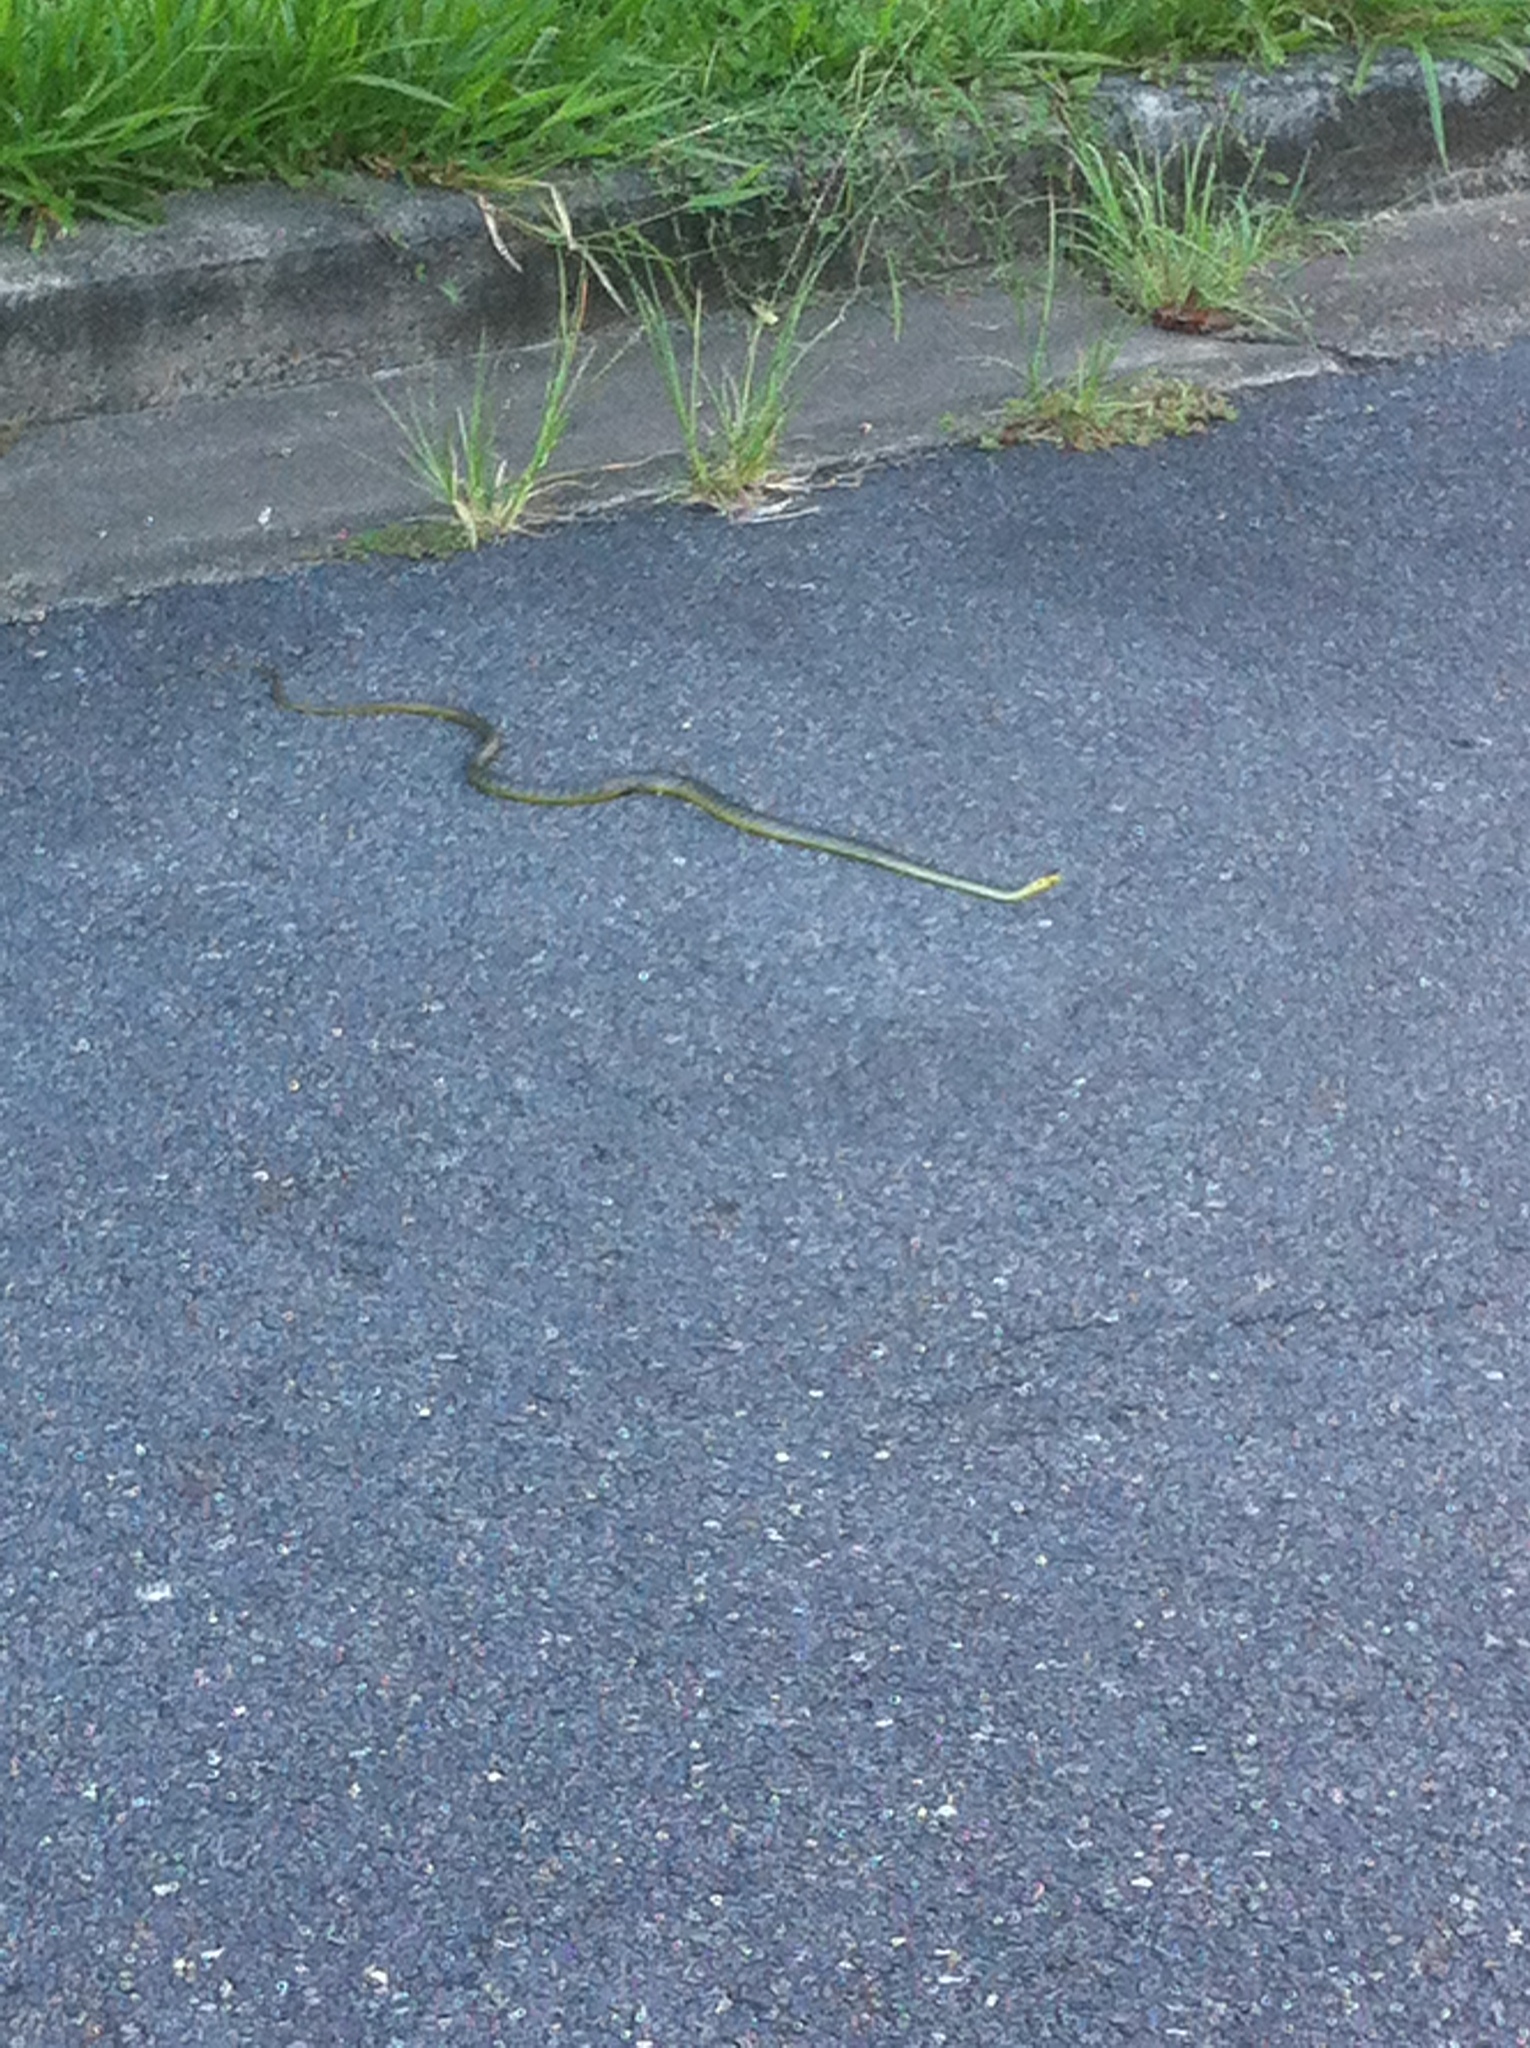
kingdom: Animalia
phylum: Chordata
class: Squamata
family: Colubridae
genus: Dendrelaphis
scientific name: Dendrelaphis punctulatus
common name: Common tree snake
